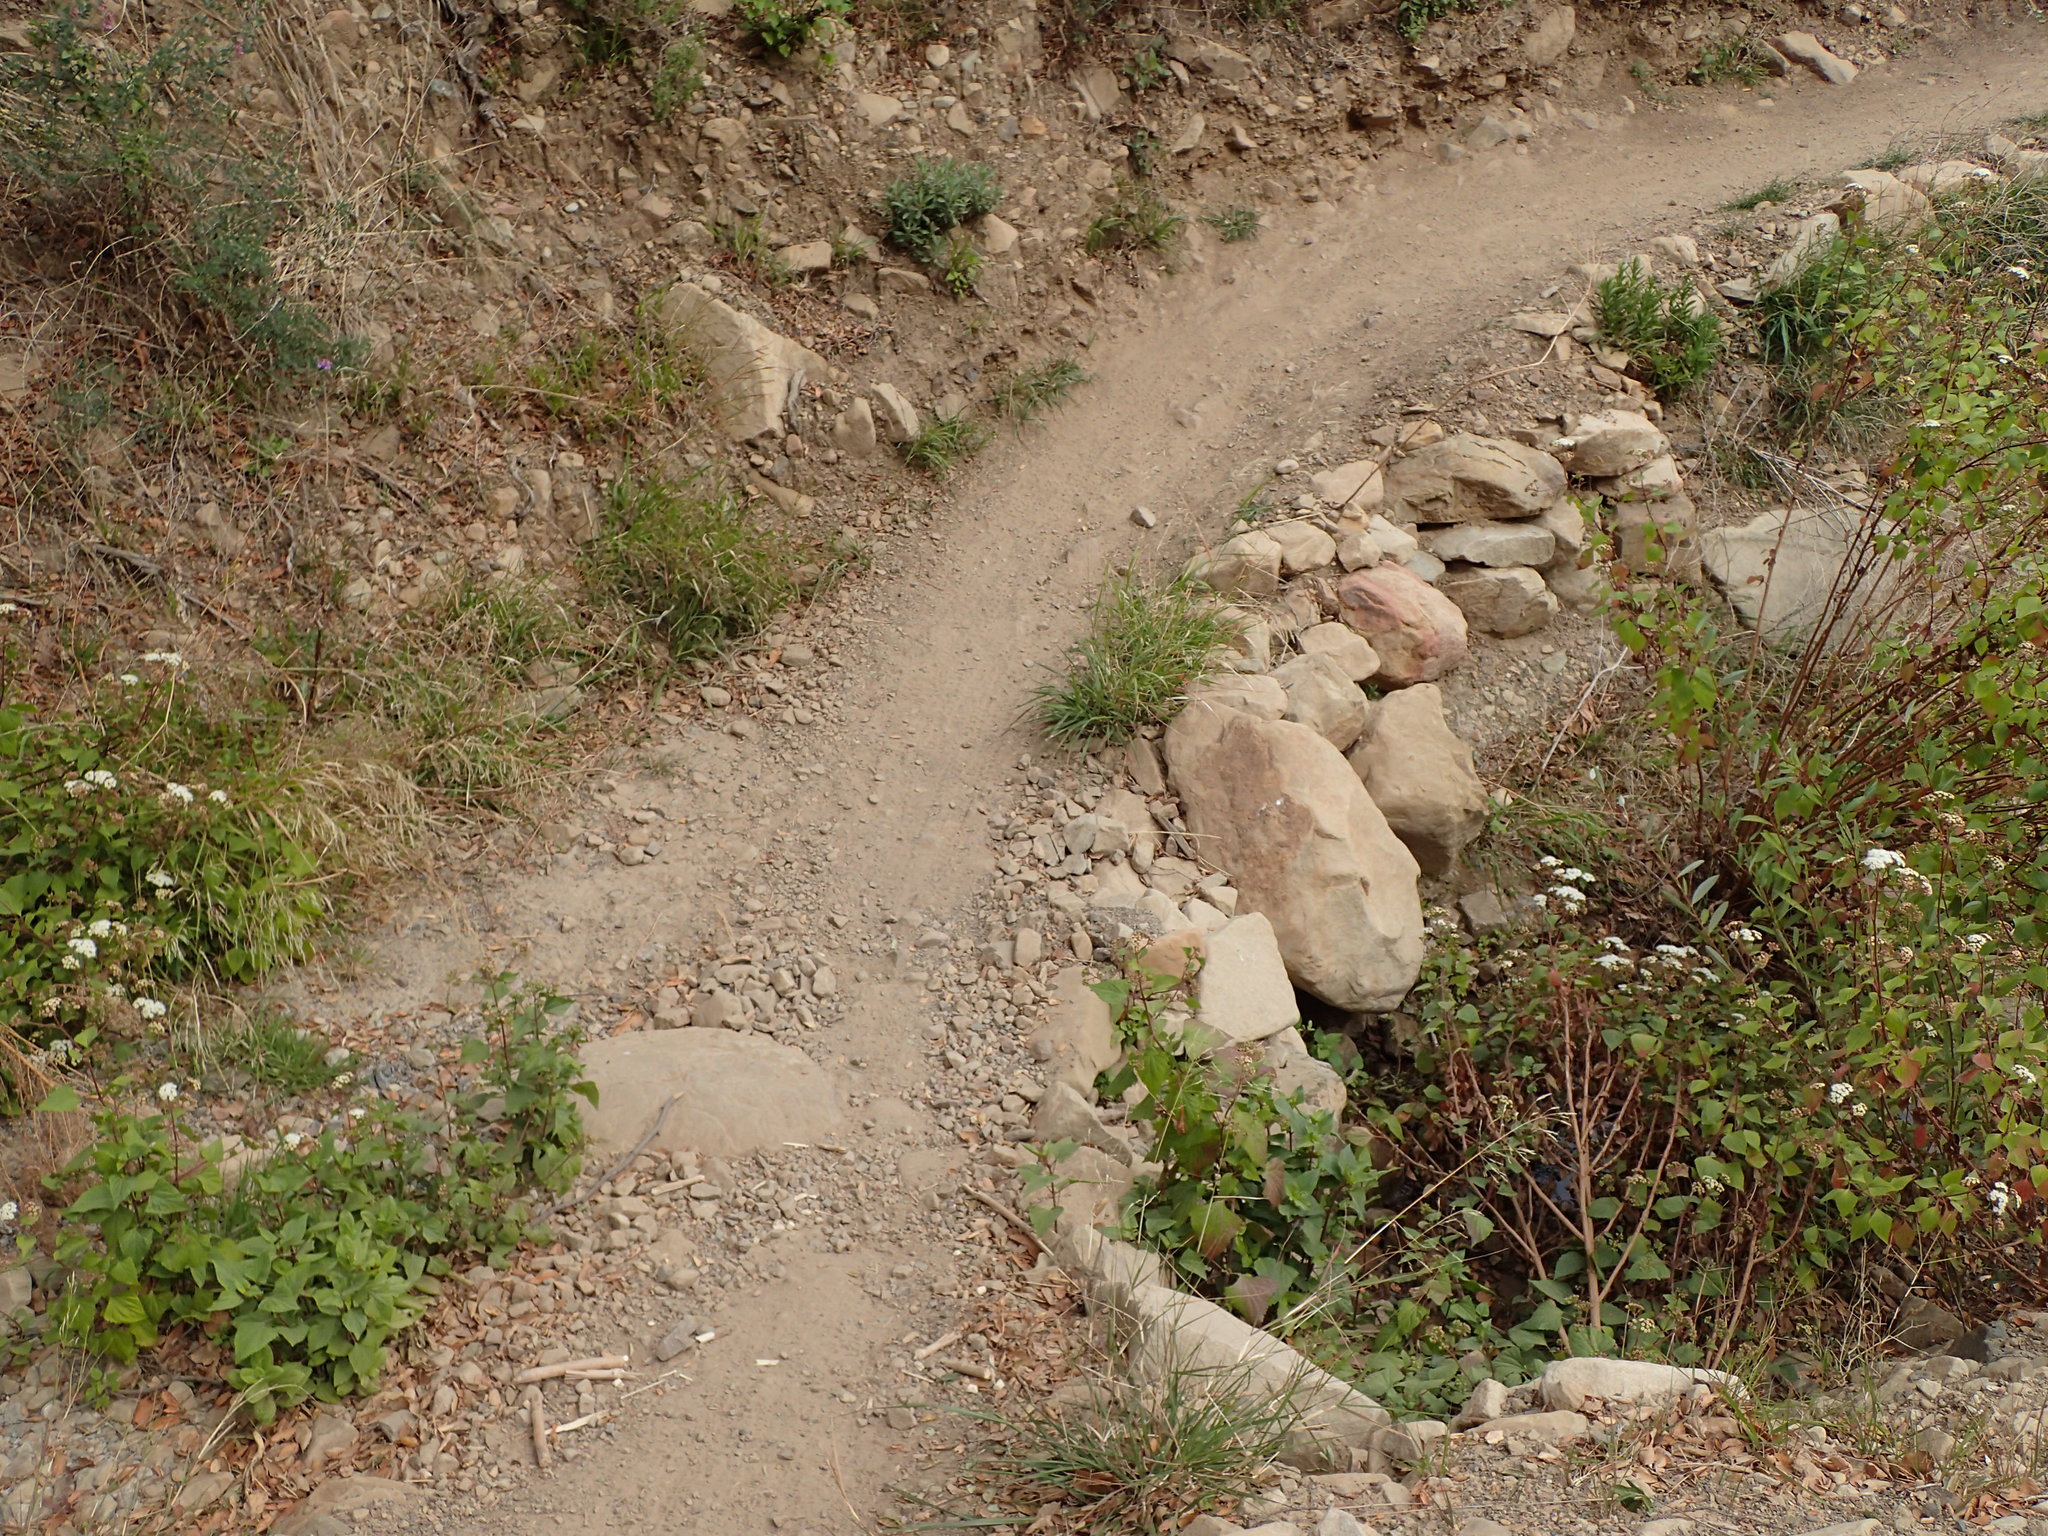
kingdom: Plantae
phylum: Tracheophyta
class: Magnoliopsida
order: Asterales
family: Asteraceae
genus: Ageratina
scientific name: Ageratina adenophora
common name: Sticky snakeroot
